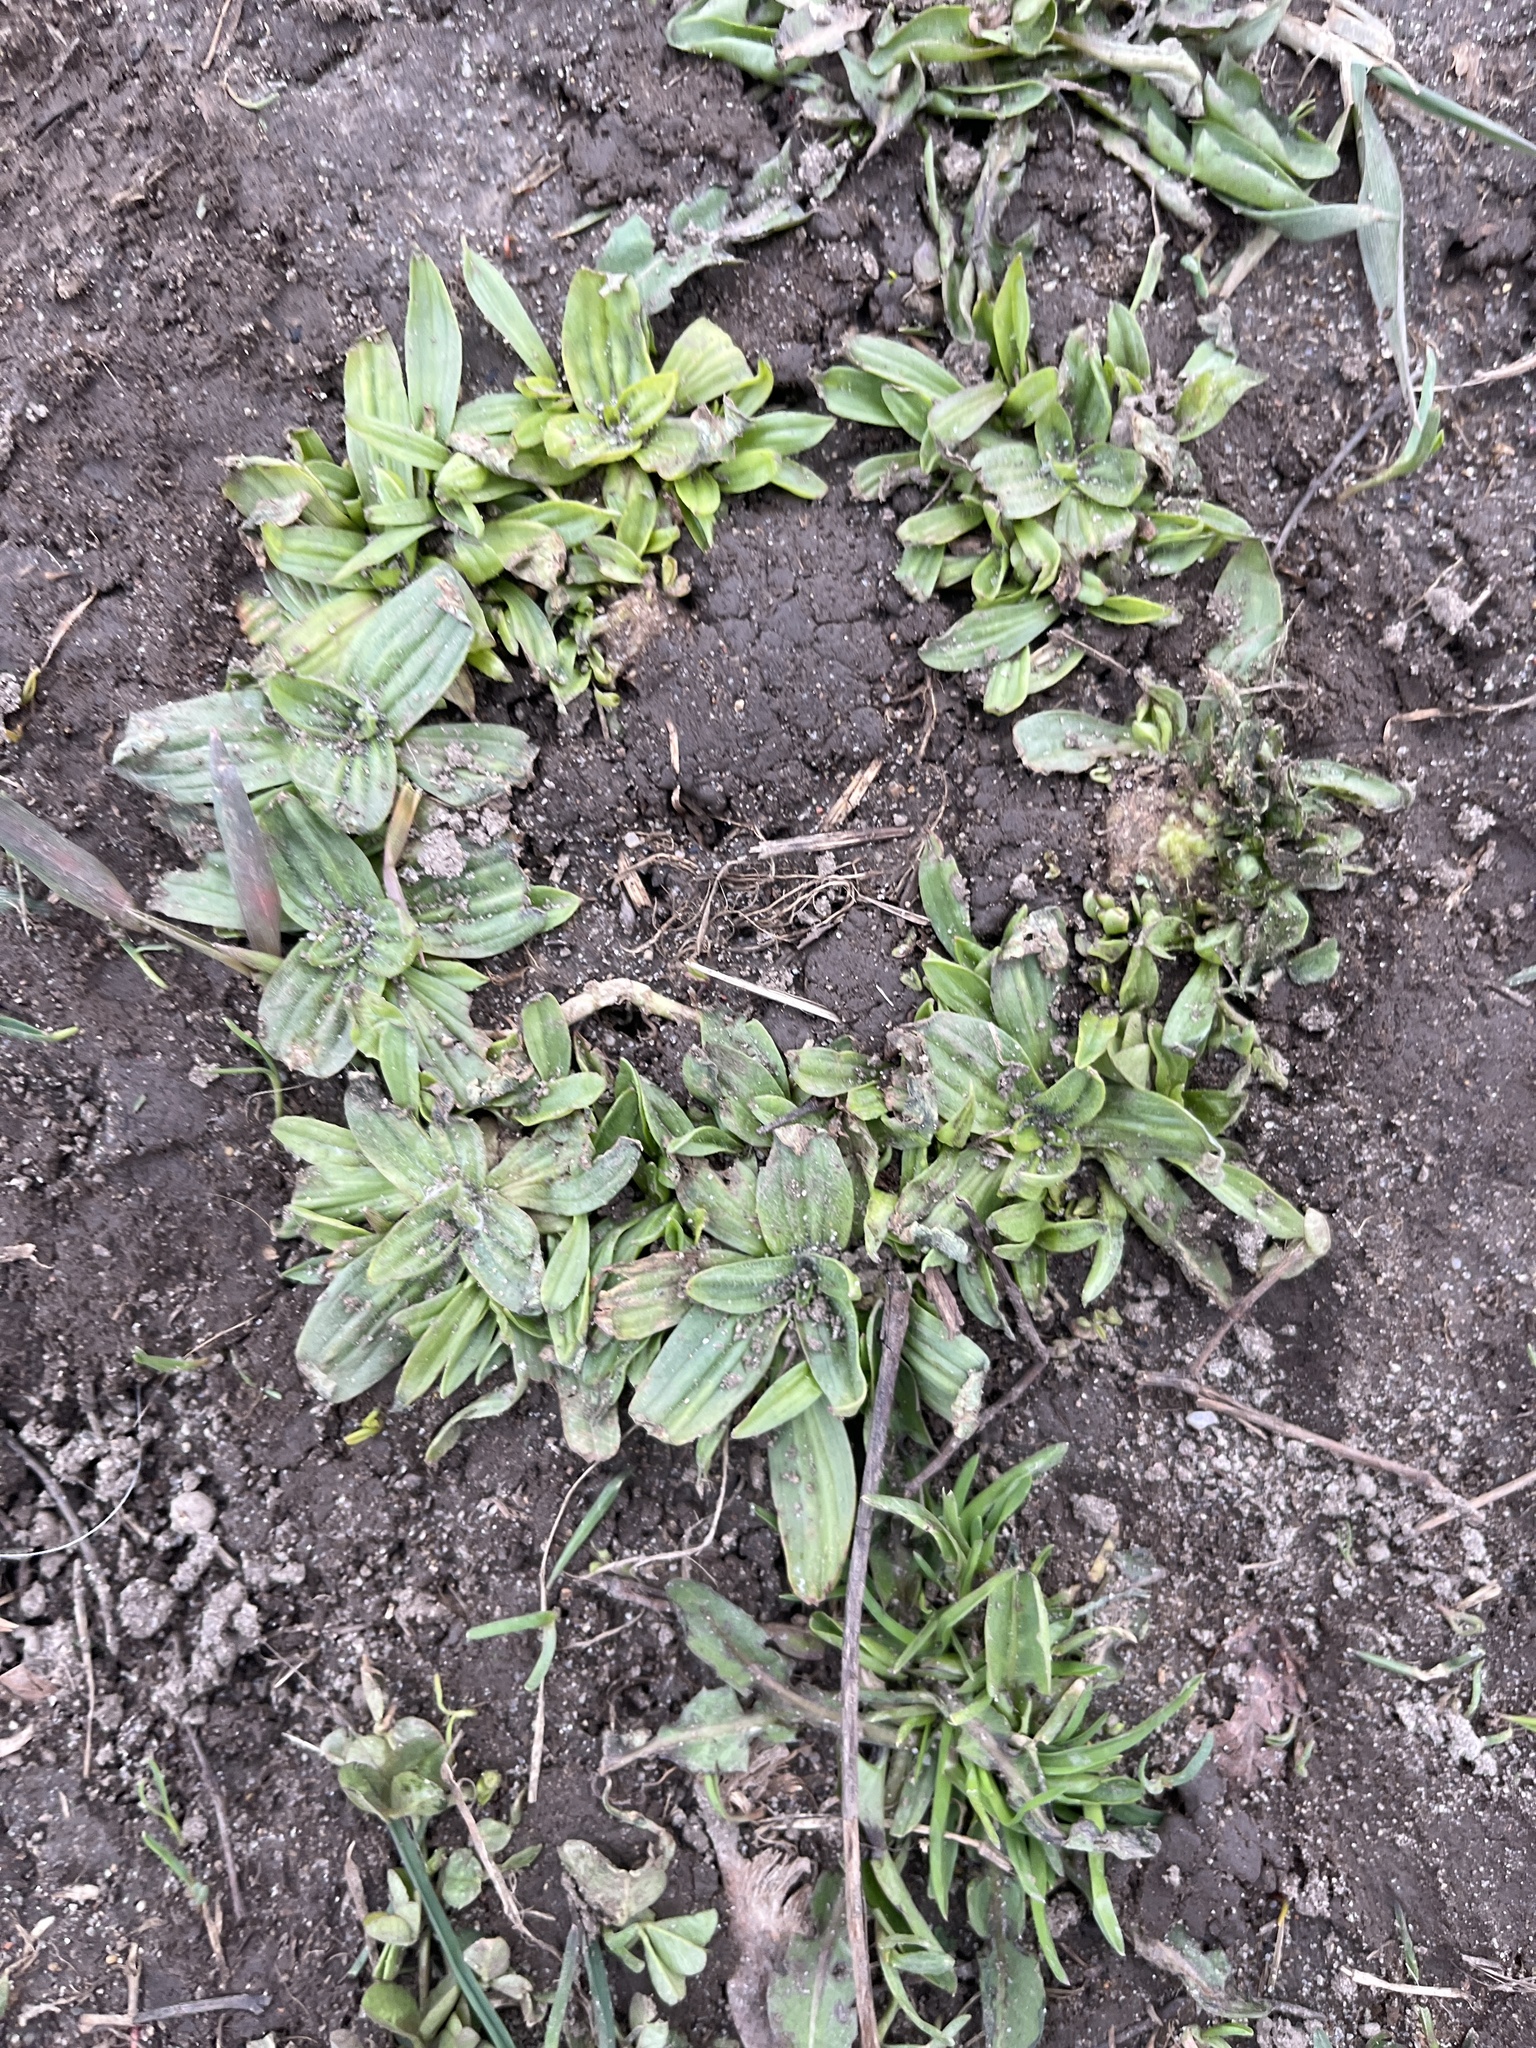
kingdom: Plantae
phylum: Tracheophyta
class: Magnoliopsida
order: Lamiales
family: Plantaginaceae
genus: Plantago
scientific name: Plantago lanceolata
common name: Ribwort plantain
